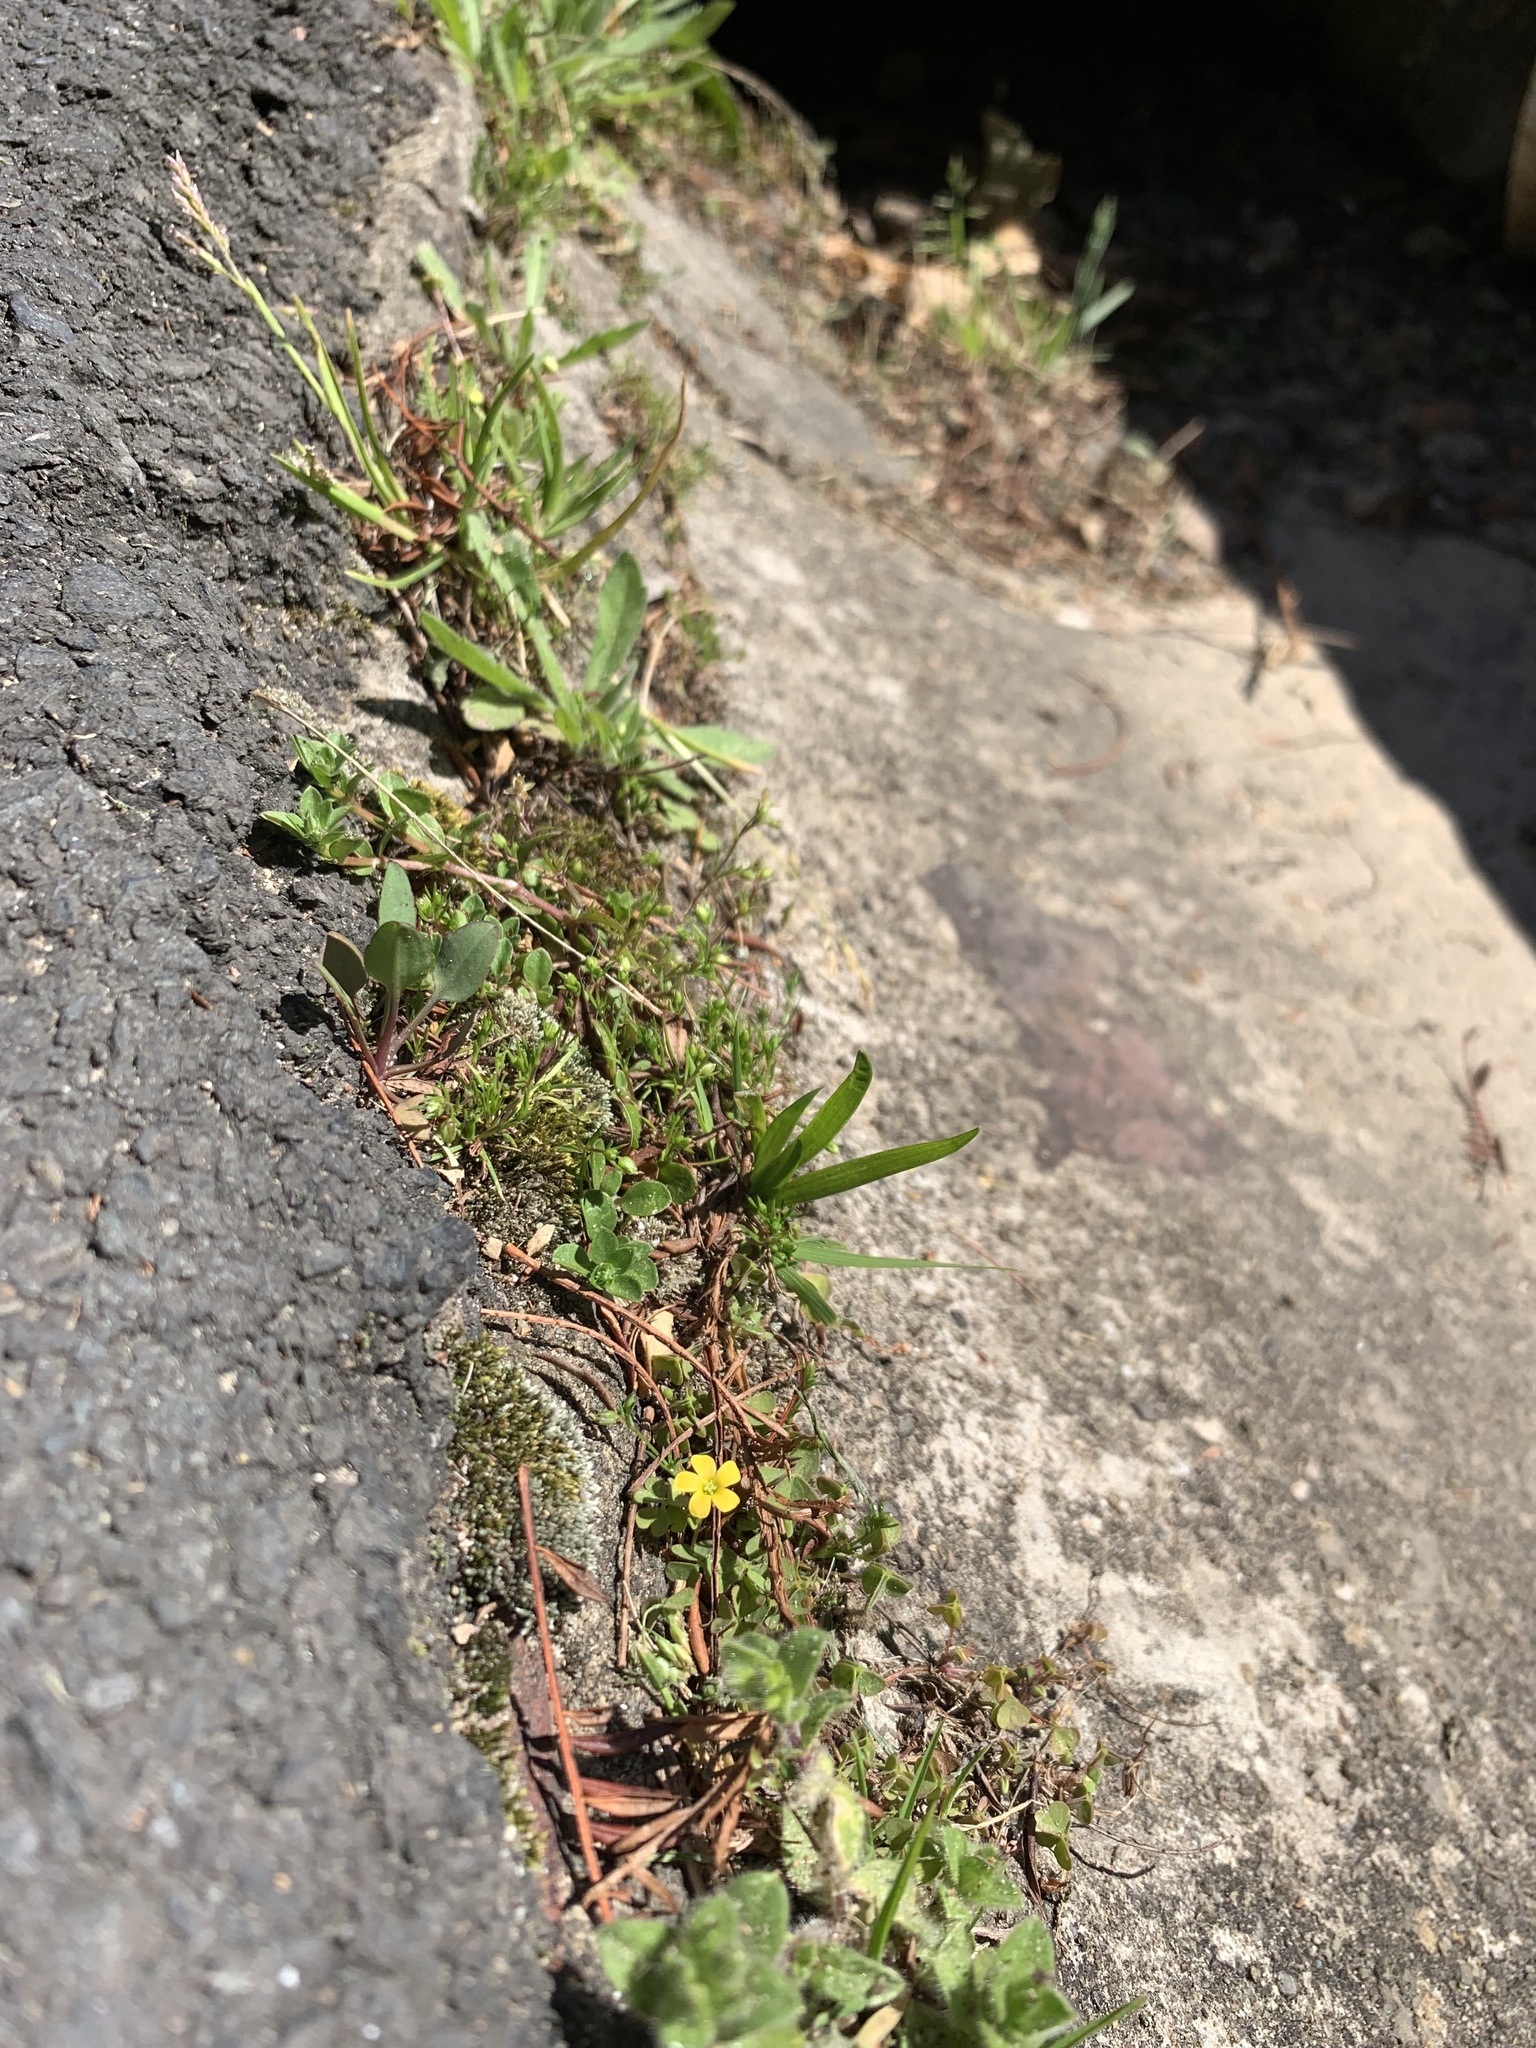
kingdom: Plantae
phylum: Tracheophyta
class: Magnoliopsida
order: Oxalidales
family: Oxalidaceae
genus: Oxalis
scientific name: Oxalis corniculata
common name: Procumbent yellow-sorrel
